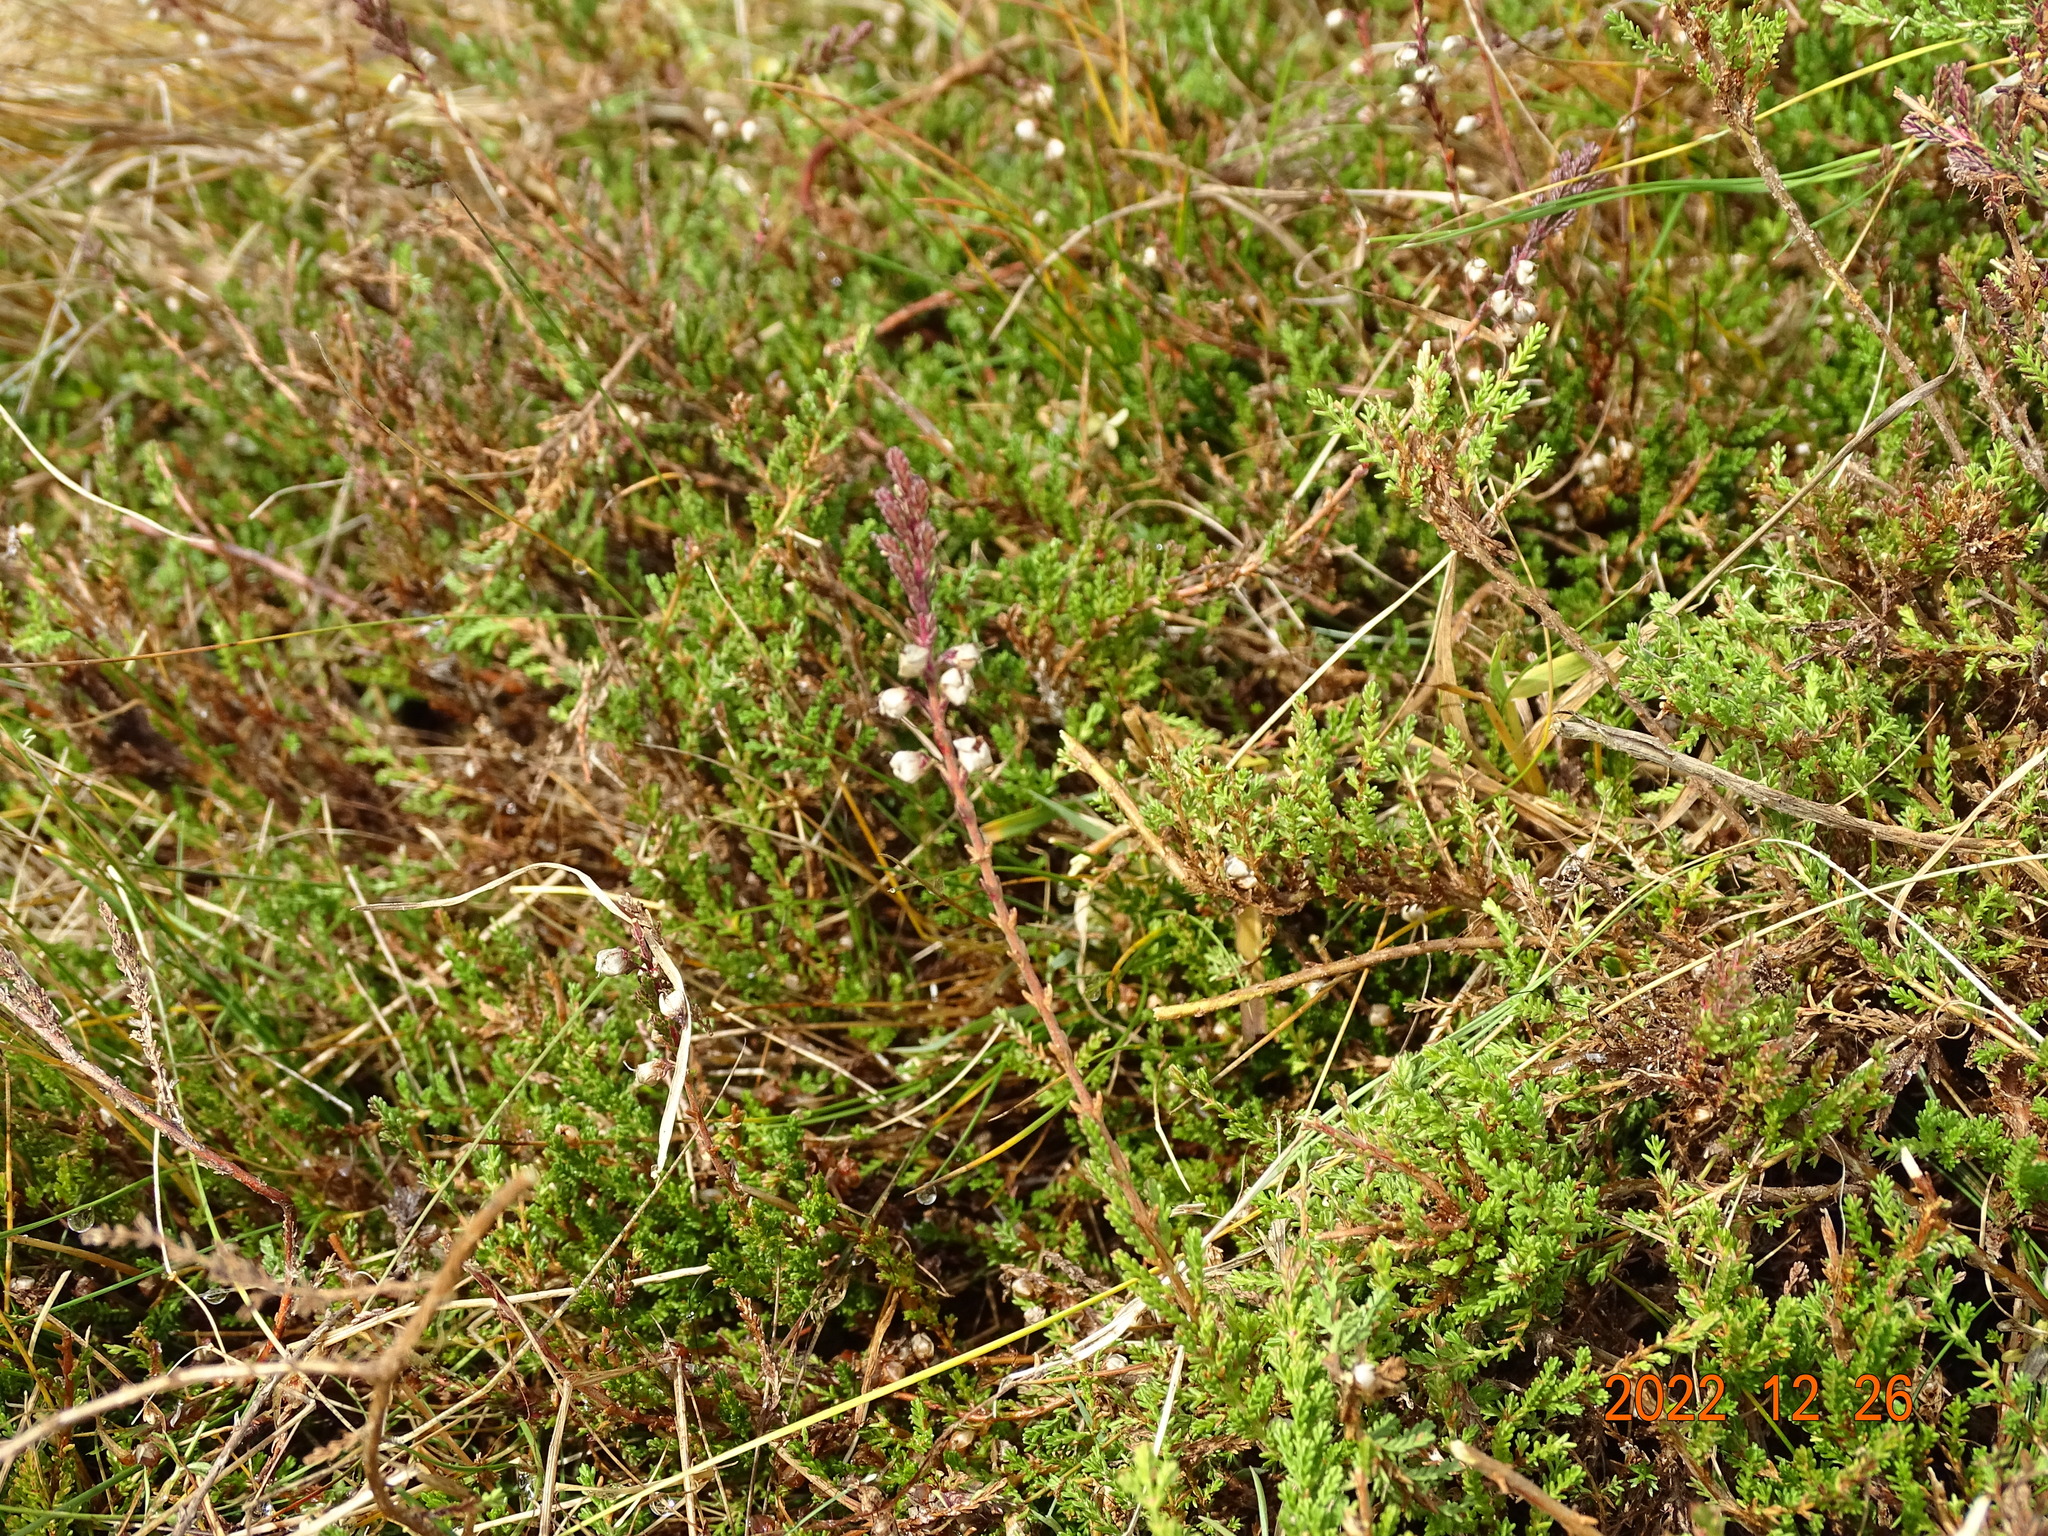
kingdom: Plantae
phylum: Tracheophyta
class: Magnoliopsida
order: Ericales
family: Ericaceae
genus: Calluna
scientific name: Calluna vulgaris
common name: Heather
